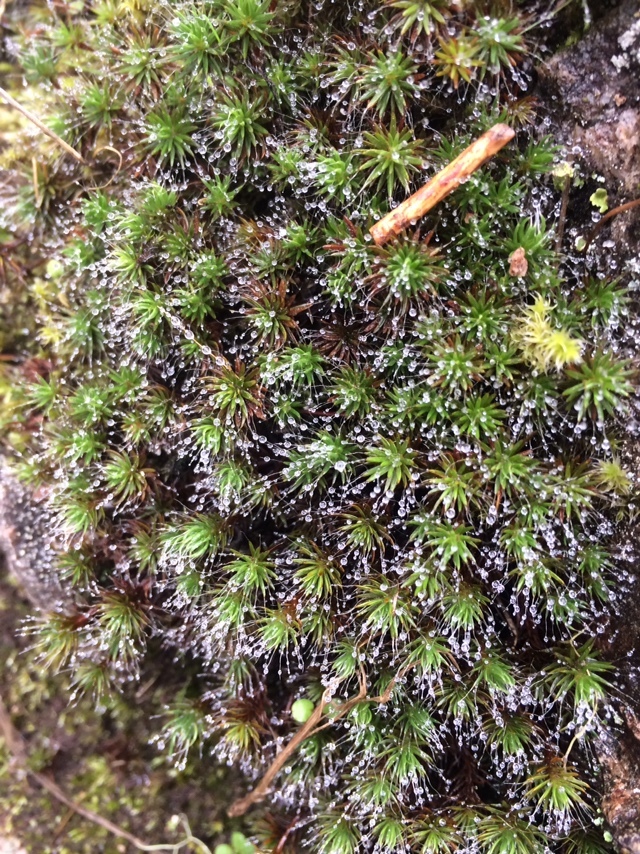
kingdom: Plantae
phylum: Bryophyta
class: Polytrichopsida
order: Polytrichales
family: Polytrichaceae
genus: Polytrichum
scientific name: Polytrichum piliferum
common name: Bristly haircap
